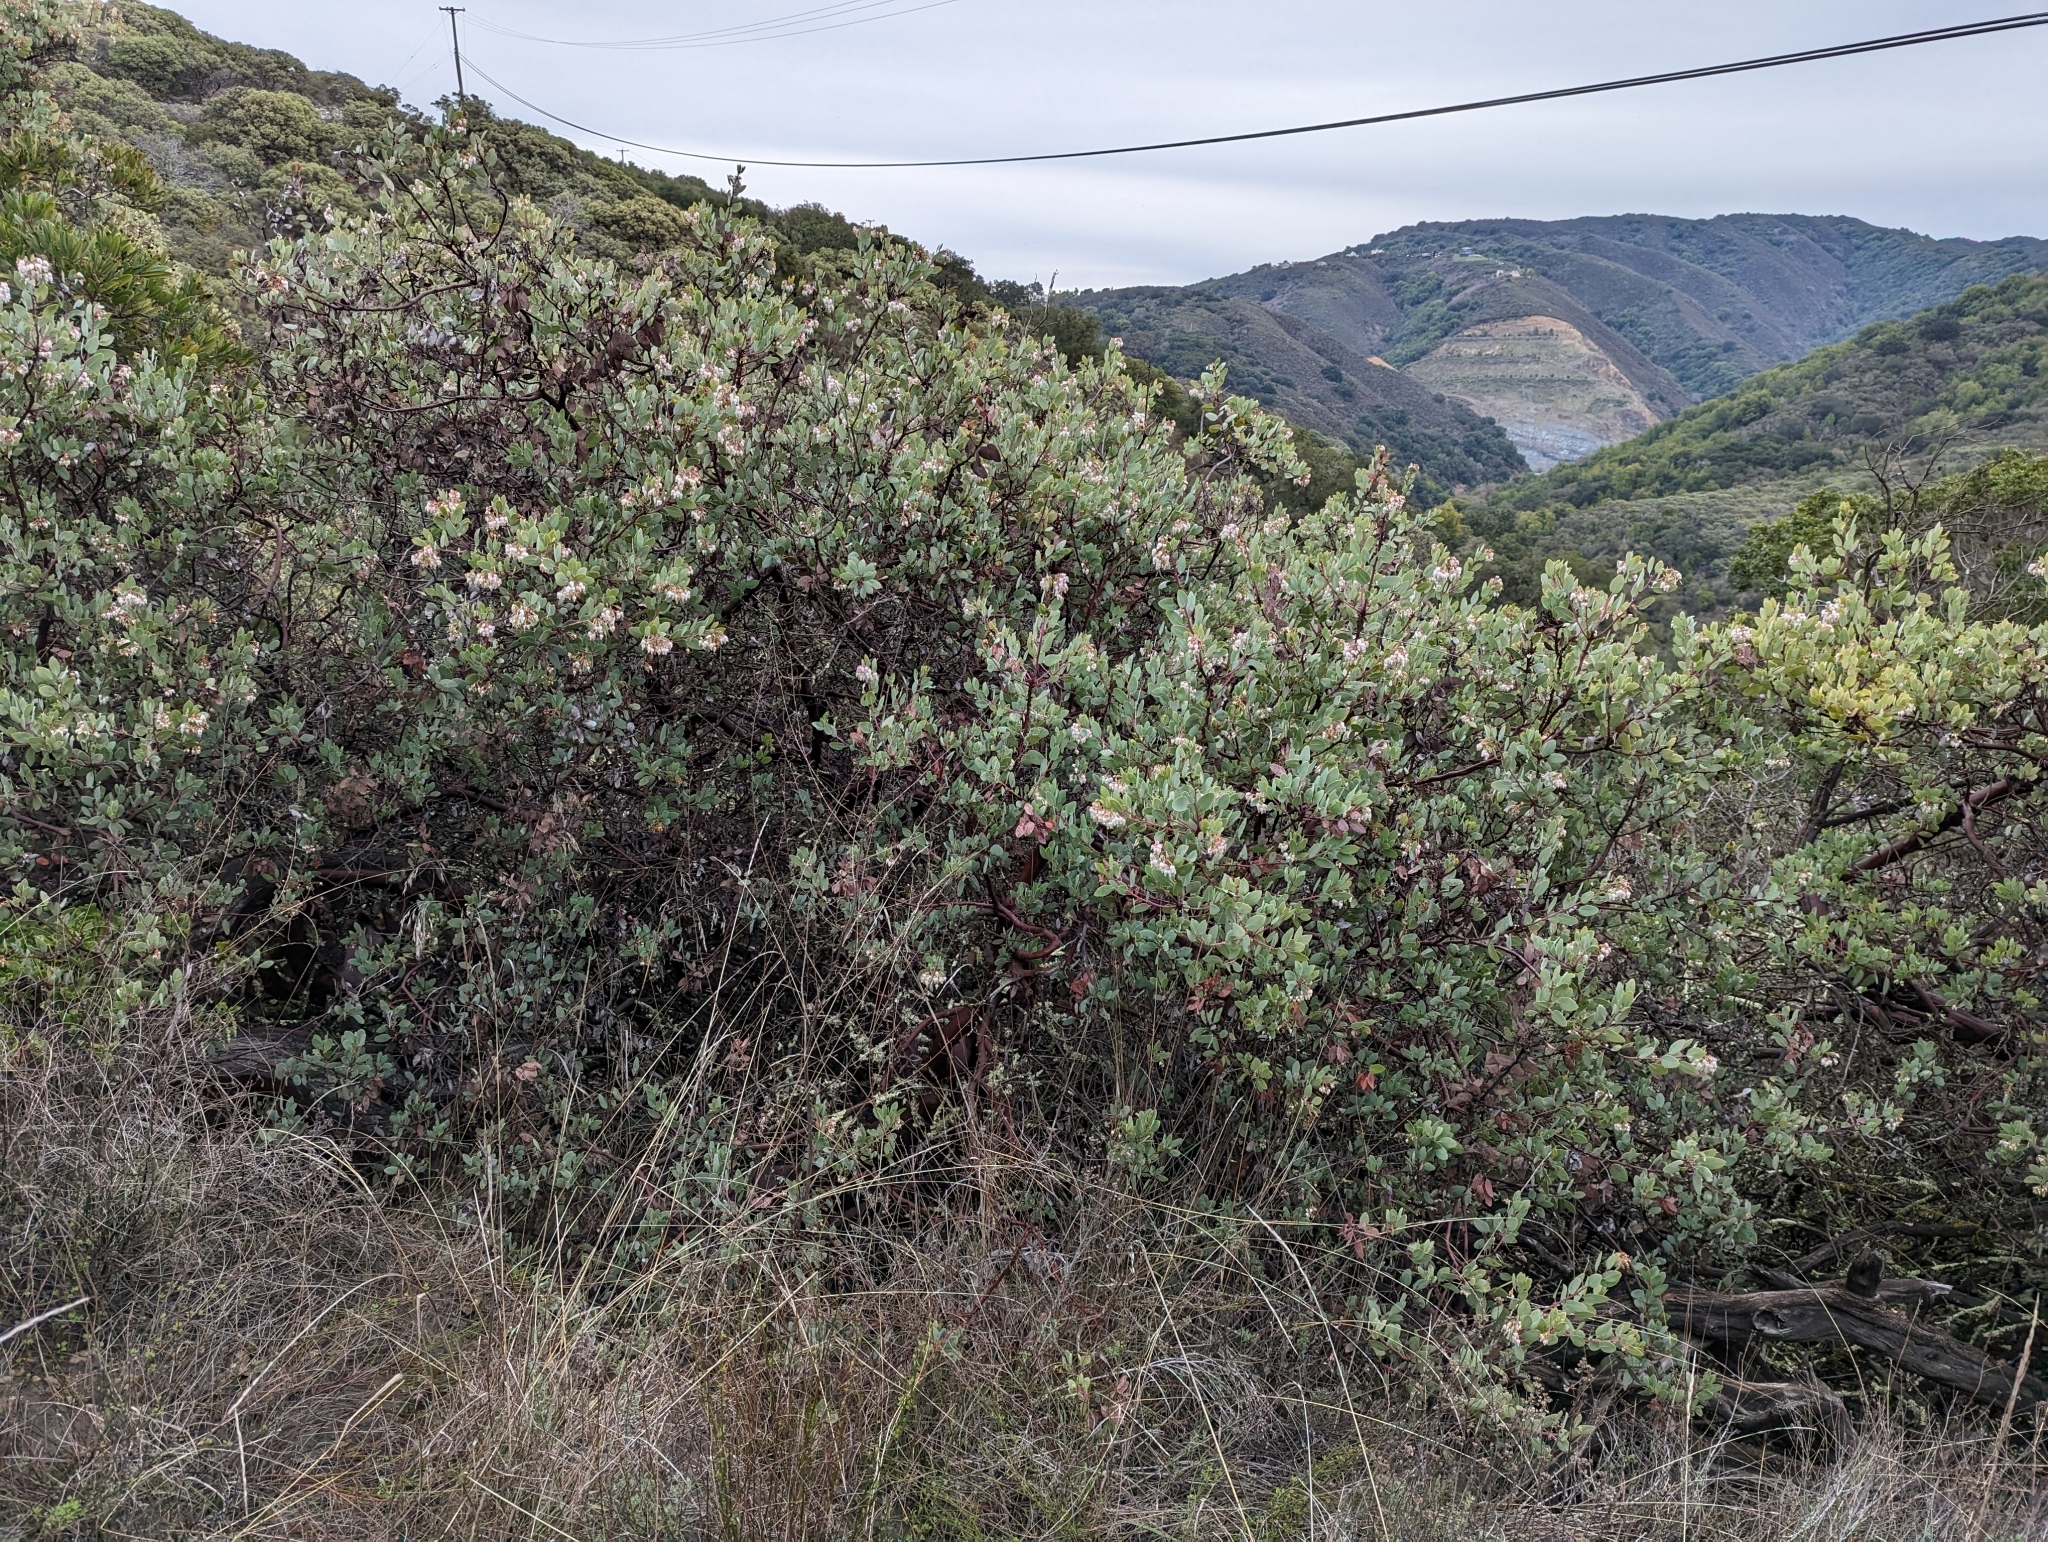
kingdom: Plantae
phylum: Tracheophyta
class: Magnoliopsida
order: Ericales
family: Ericaceae
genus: Arctostaphylos
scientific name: Arctostaphylos glauca
